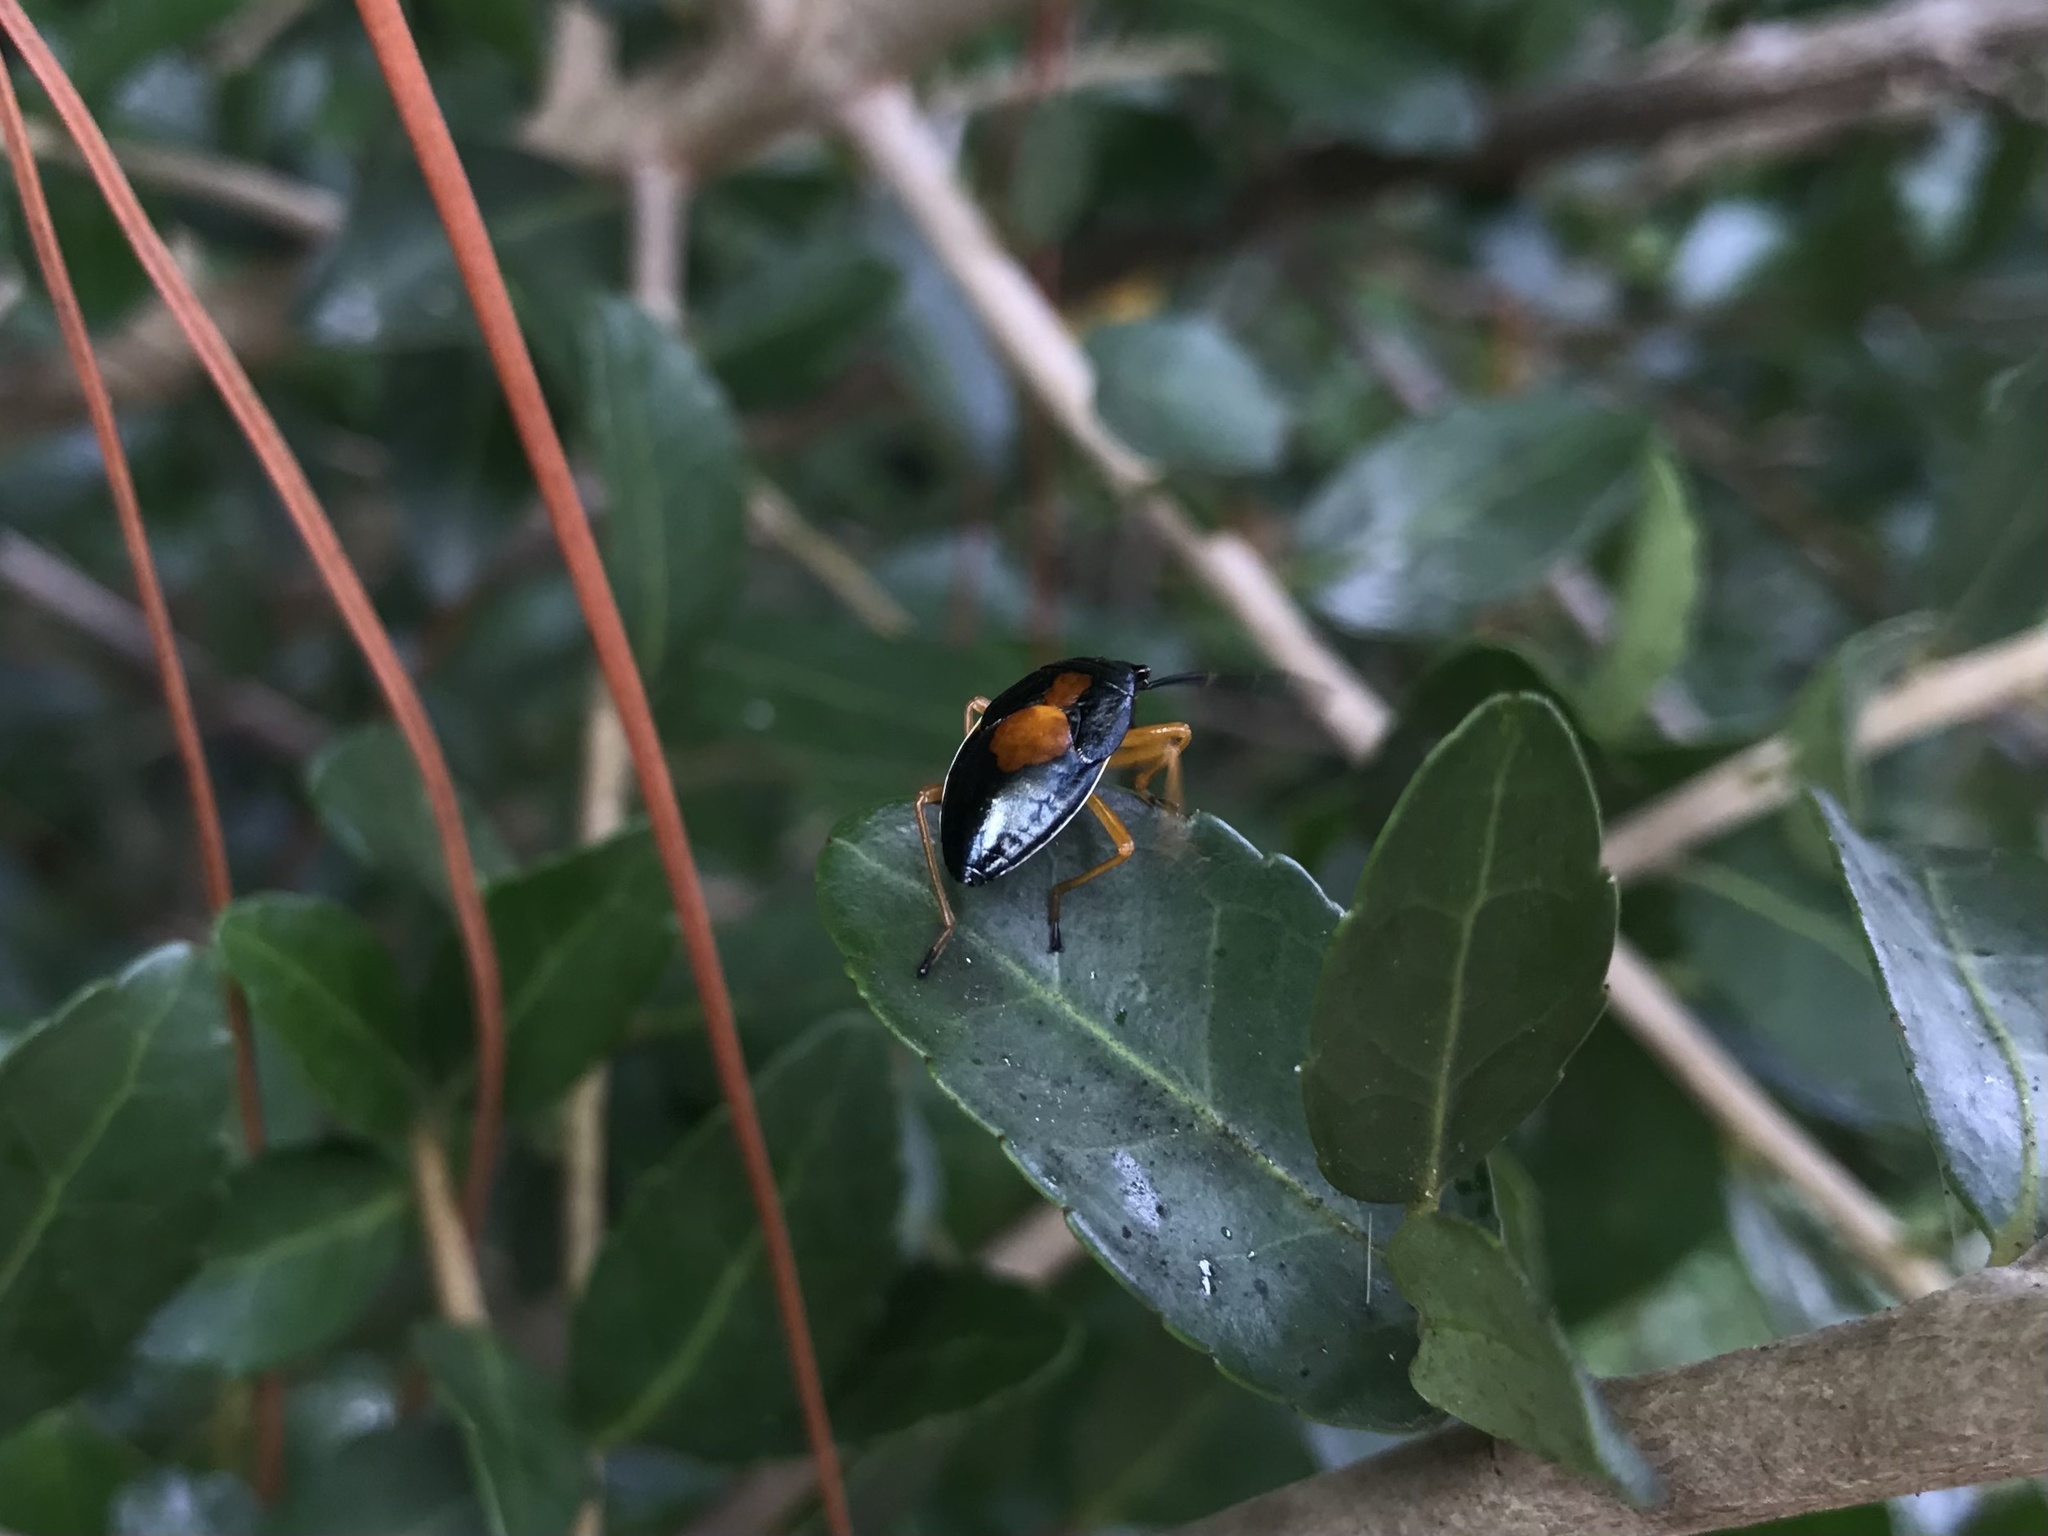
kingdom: Animalia
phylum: Arthropoda
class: Insecta
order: Hemiptera
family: Largidae
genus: Largus
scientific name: Largus succinctus
